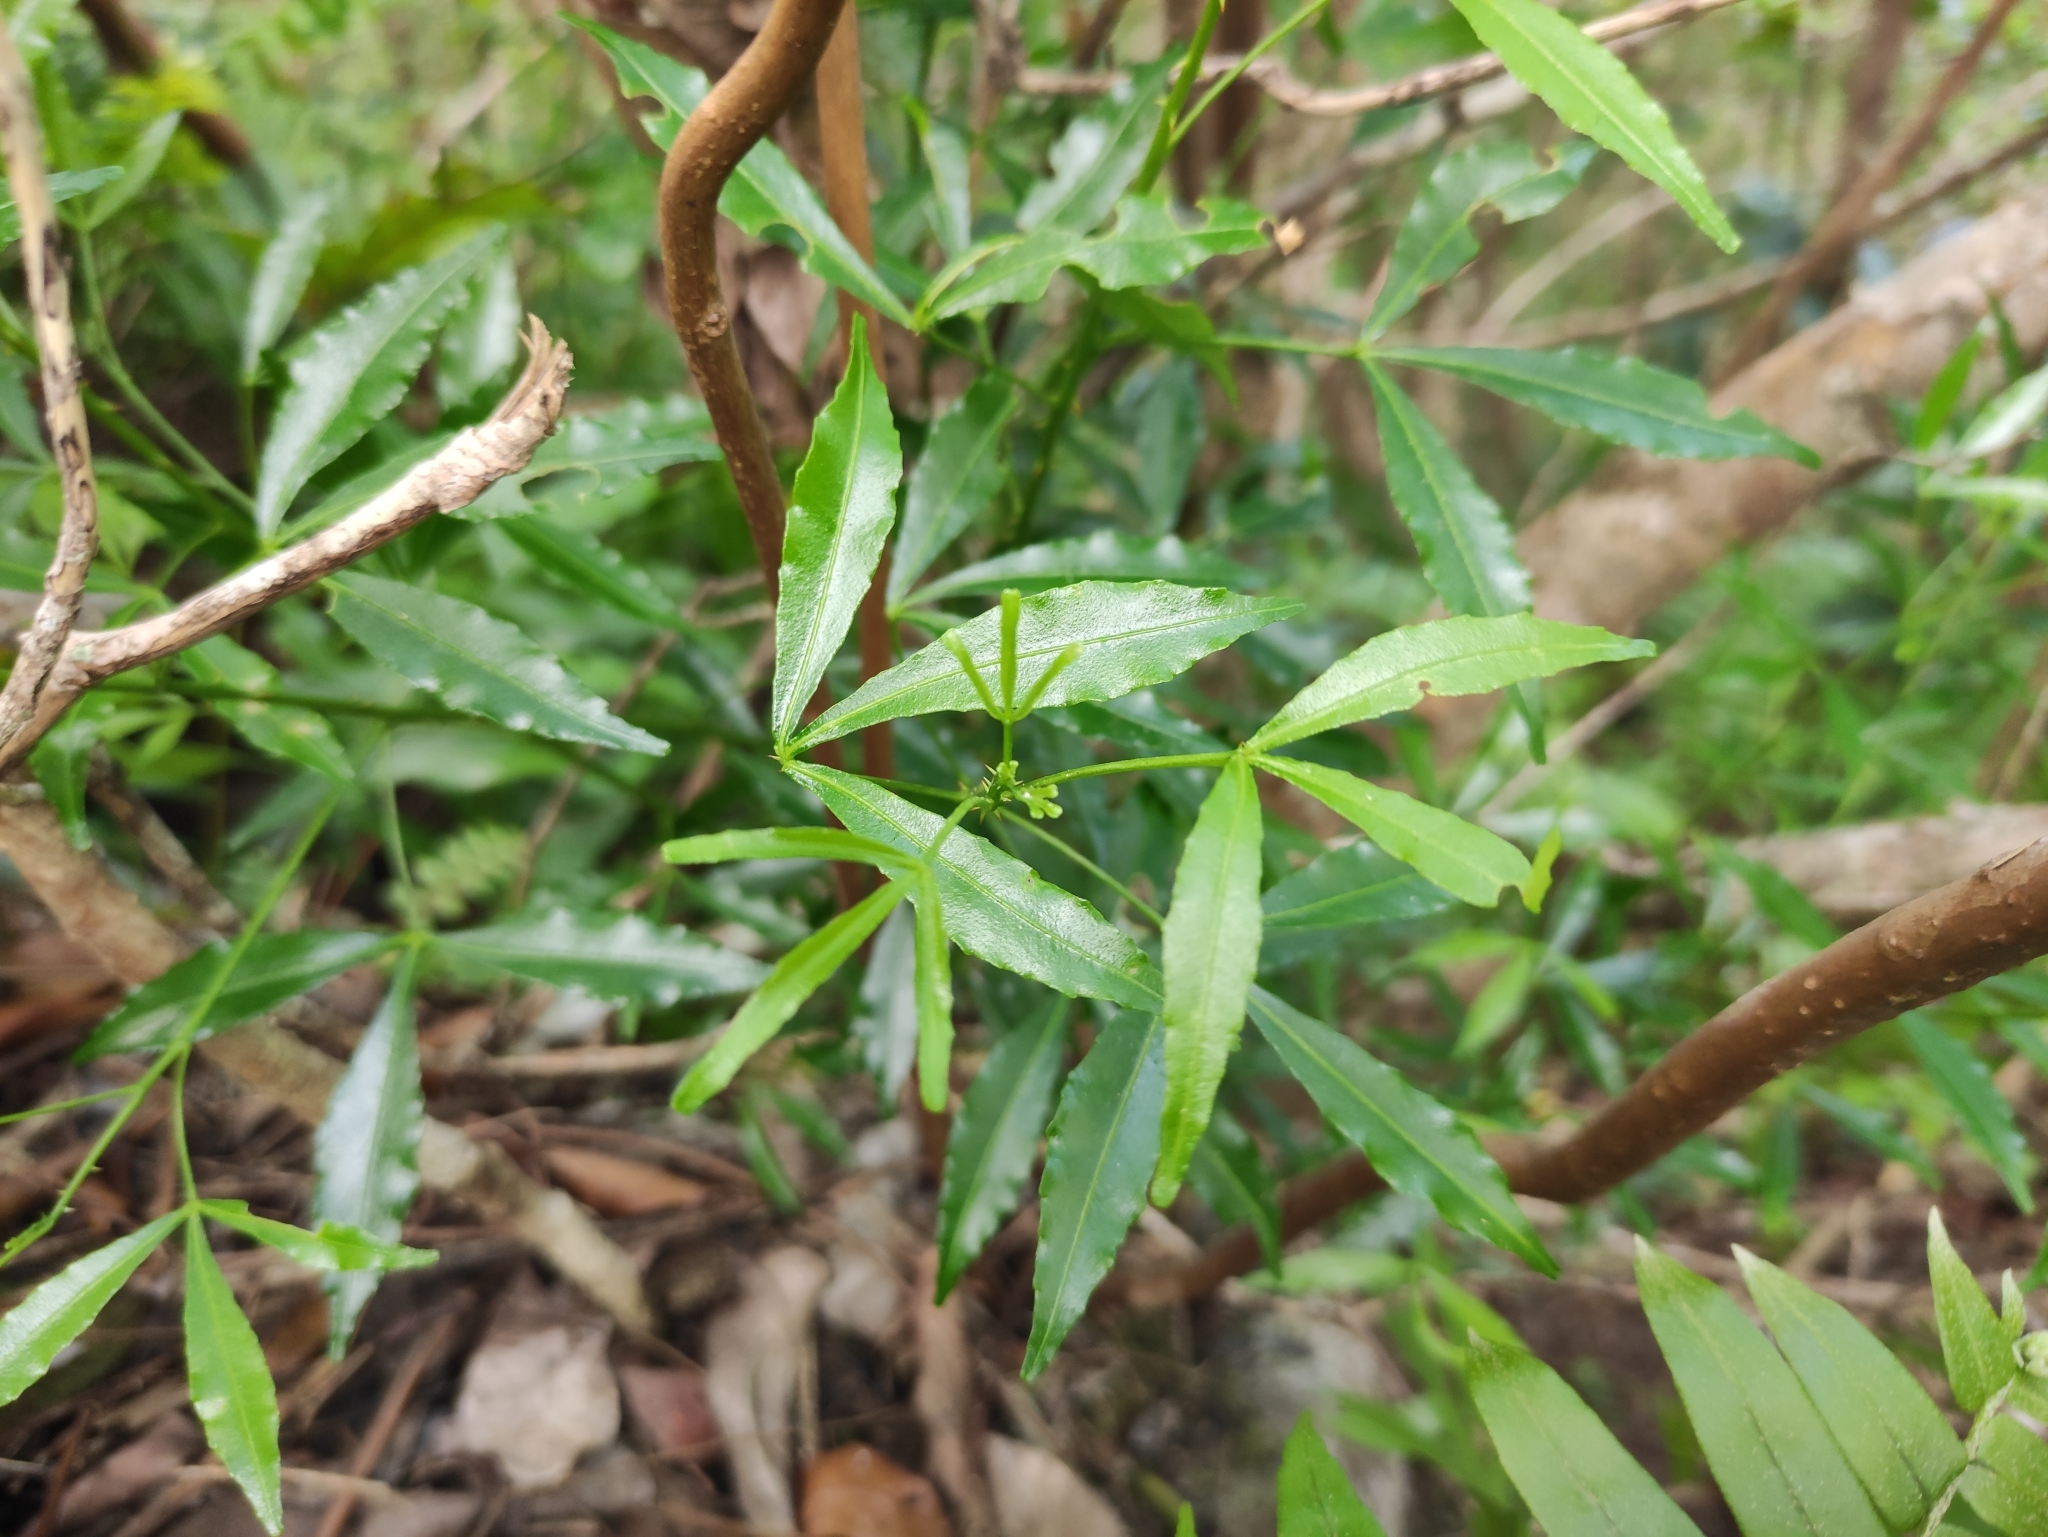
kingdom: Plantae
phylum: Tracheophyta
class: Magnoliopsida
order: Sapindales
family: Rutaceae
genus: Zanthoxylum
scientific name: Zanthoxylum asiaticum
